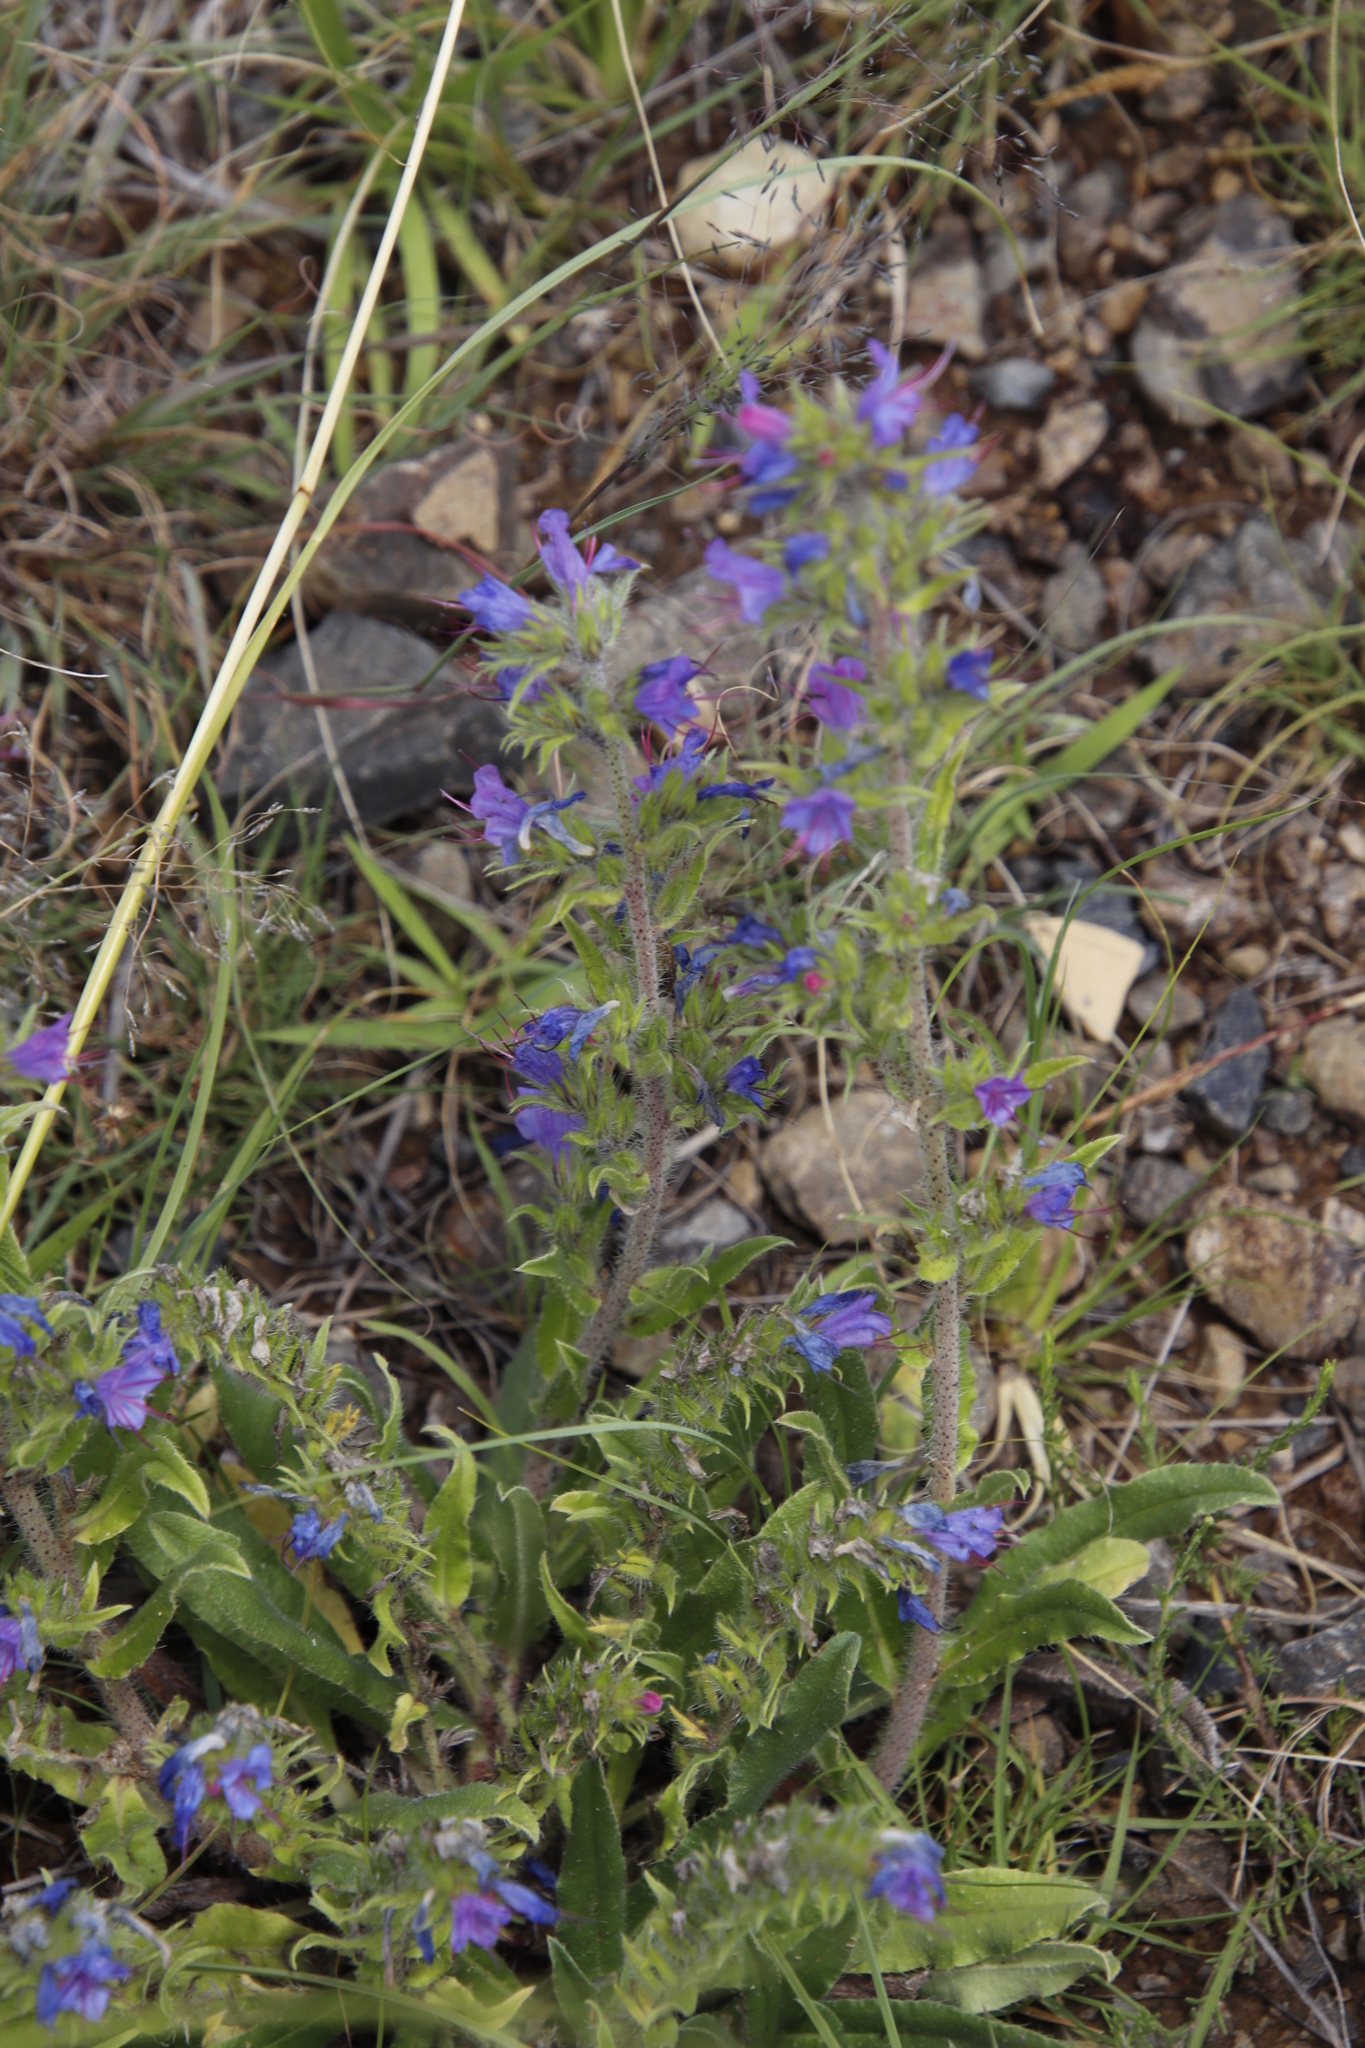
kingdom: Plantae
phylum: Tracheophyta
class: Magnoliopsida
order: Boraginales
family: Boraginaceae
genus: Echium
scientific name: Echium vulgare
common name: Common viper's bugloss
